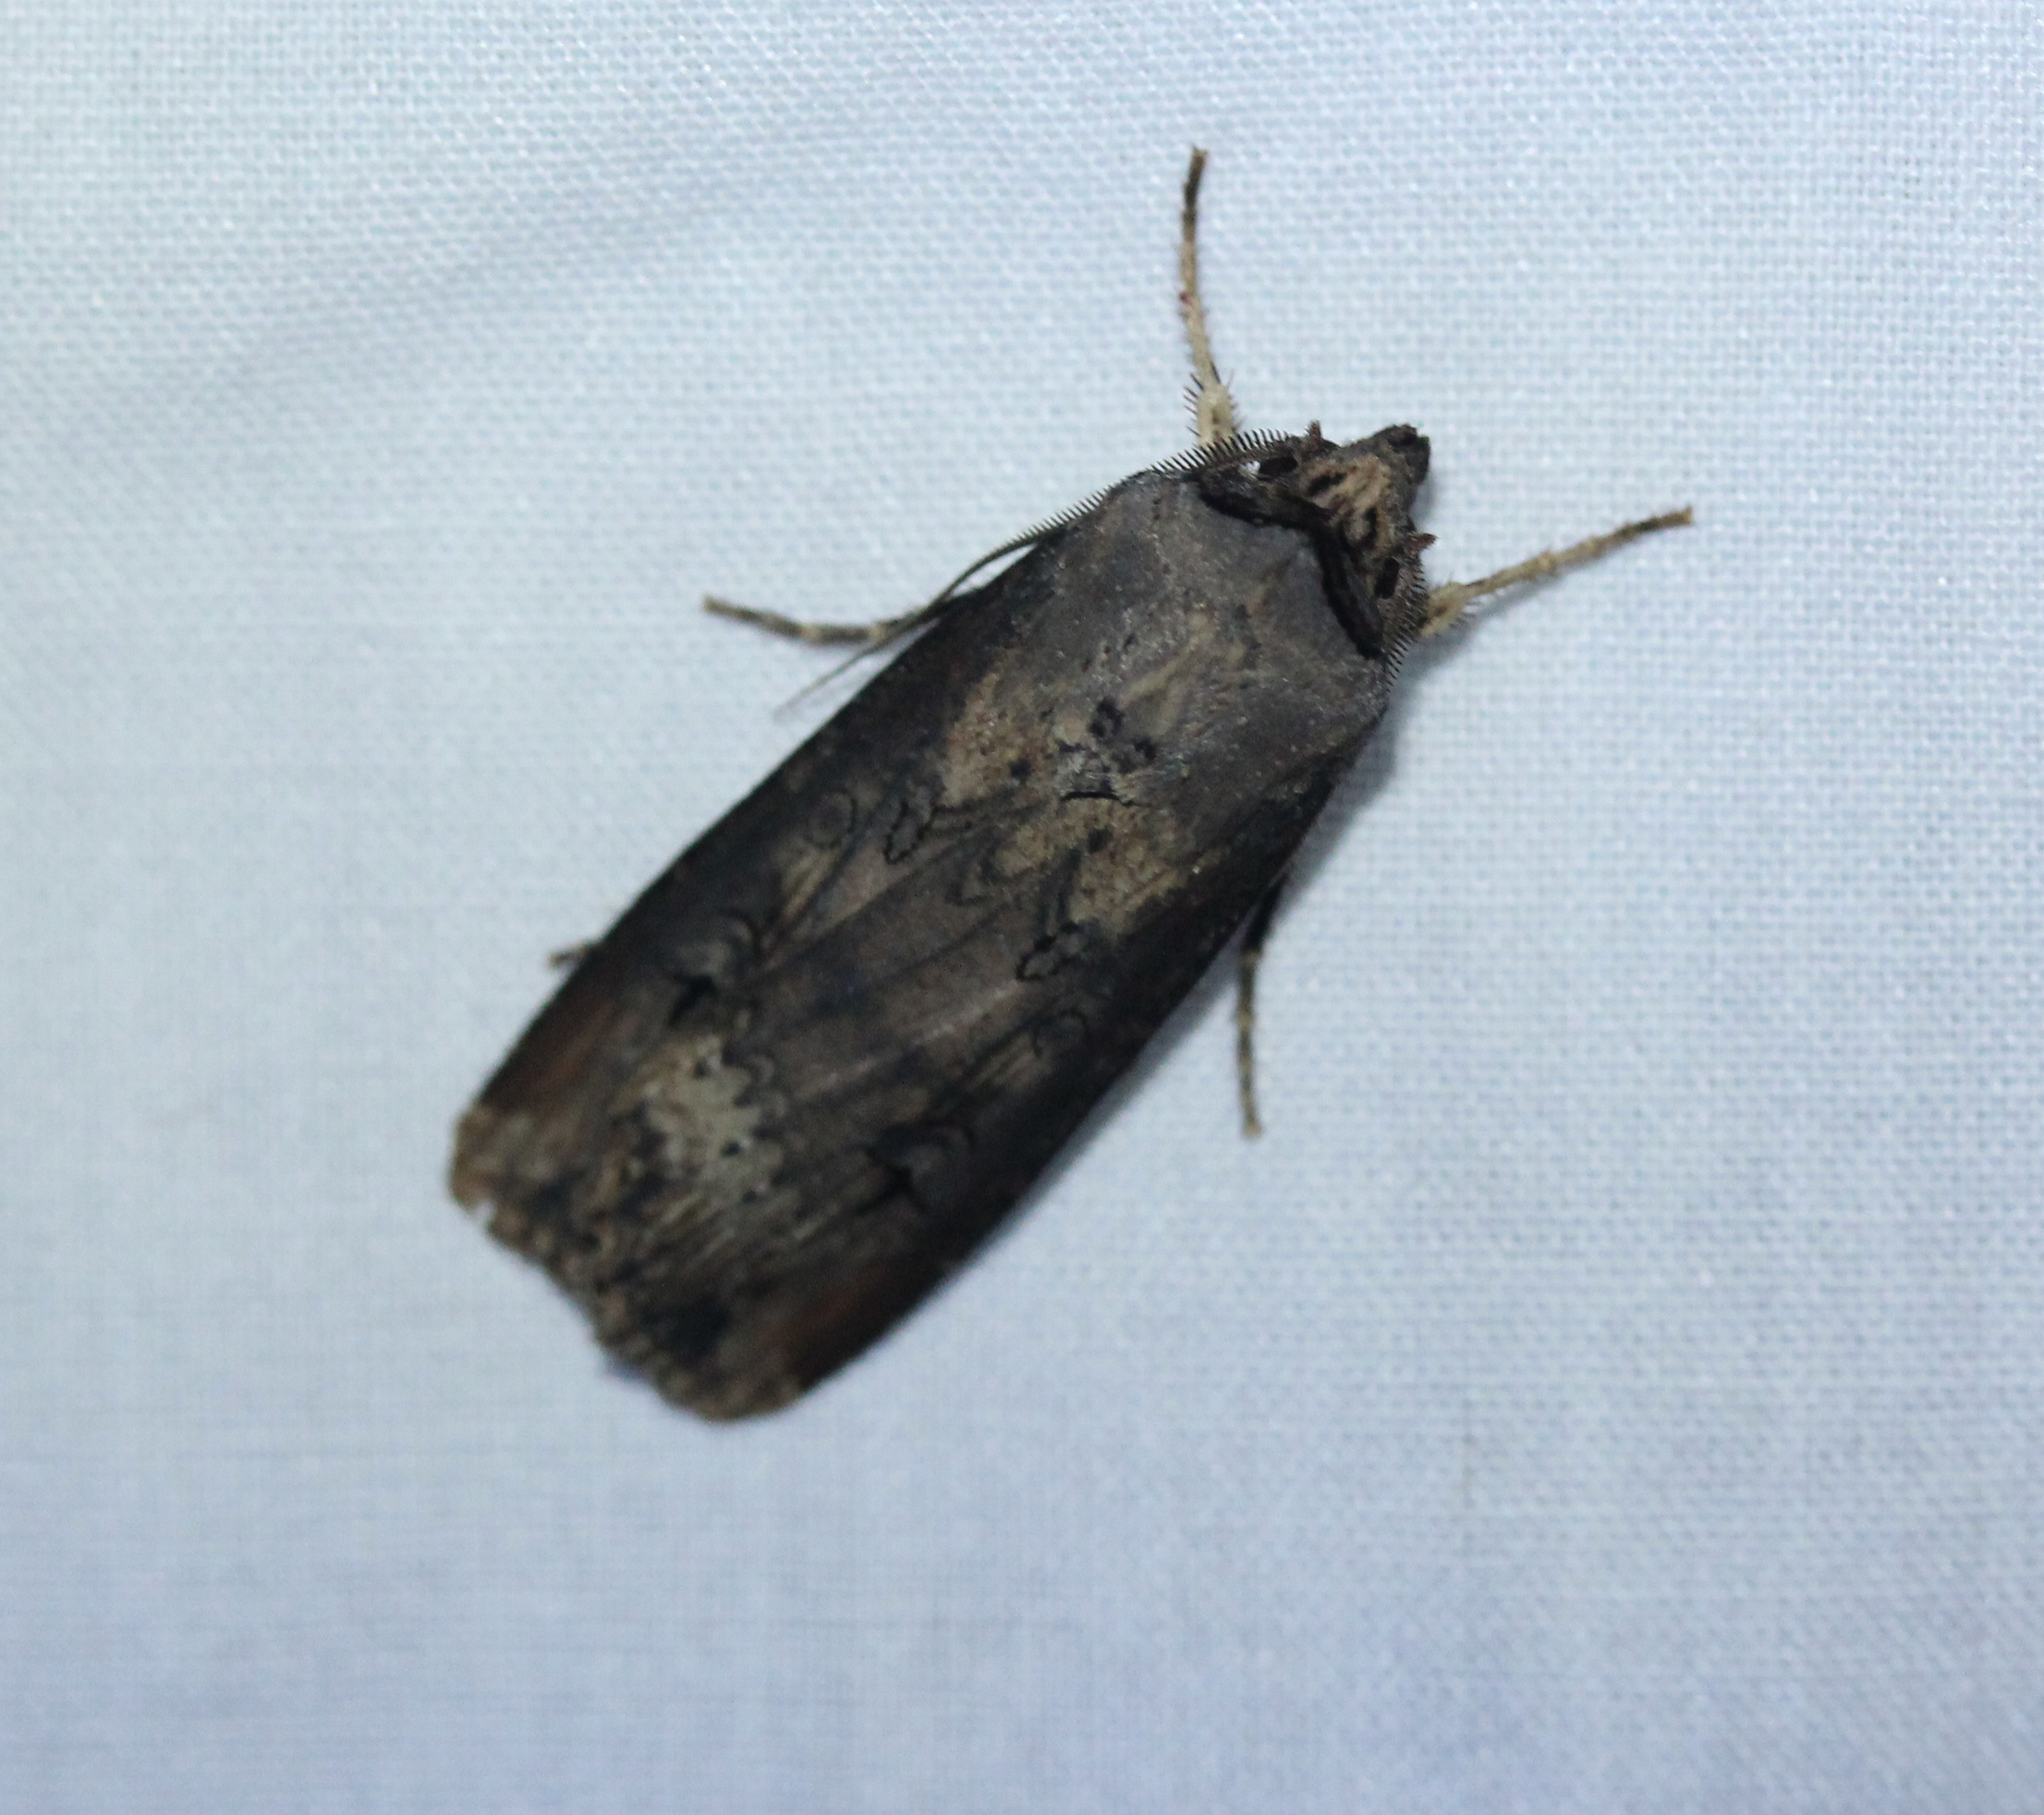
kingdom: Animalia
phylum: Arthropoda
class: Insecta
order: Lepidoptera
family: Noctuidae
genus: Agrotis
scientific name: Agrotis ipsilon
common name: Dark sword-grass
